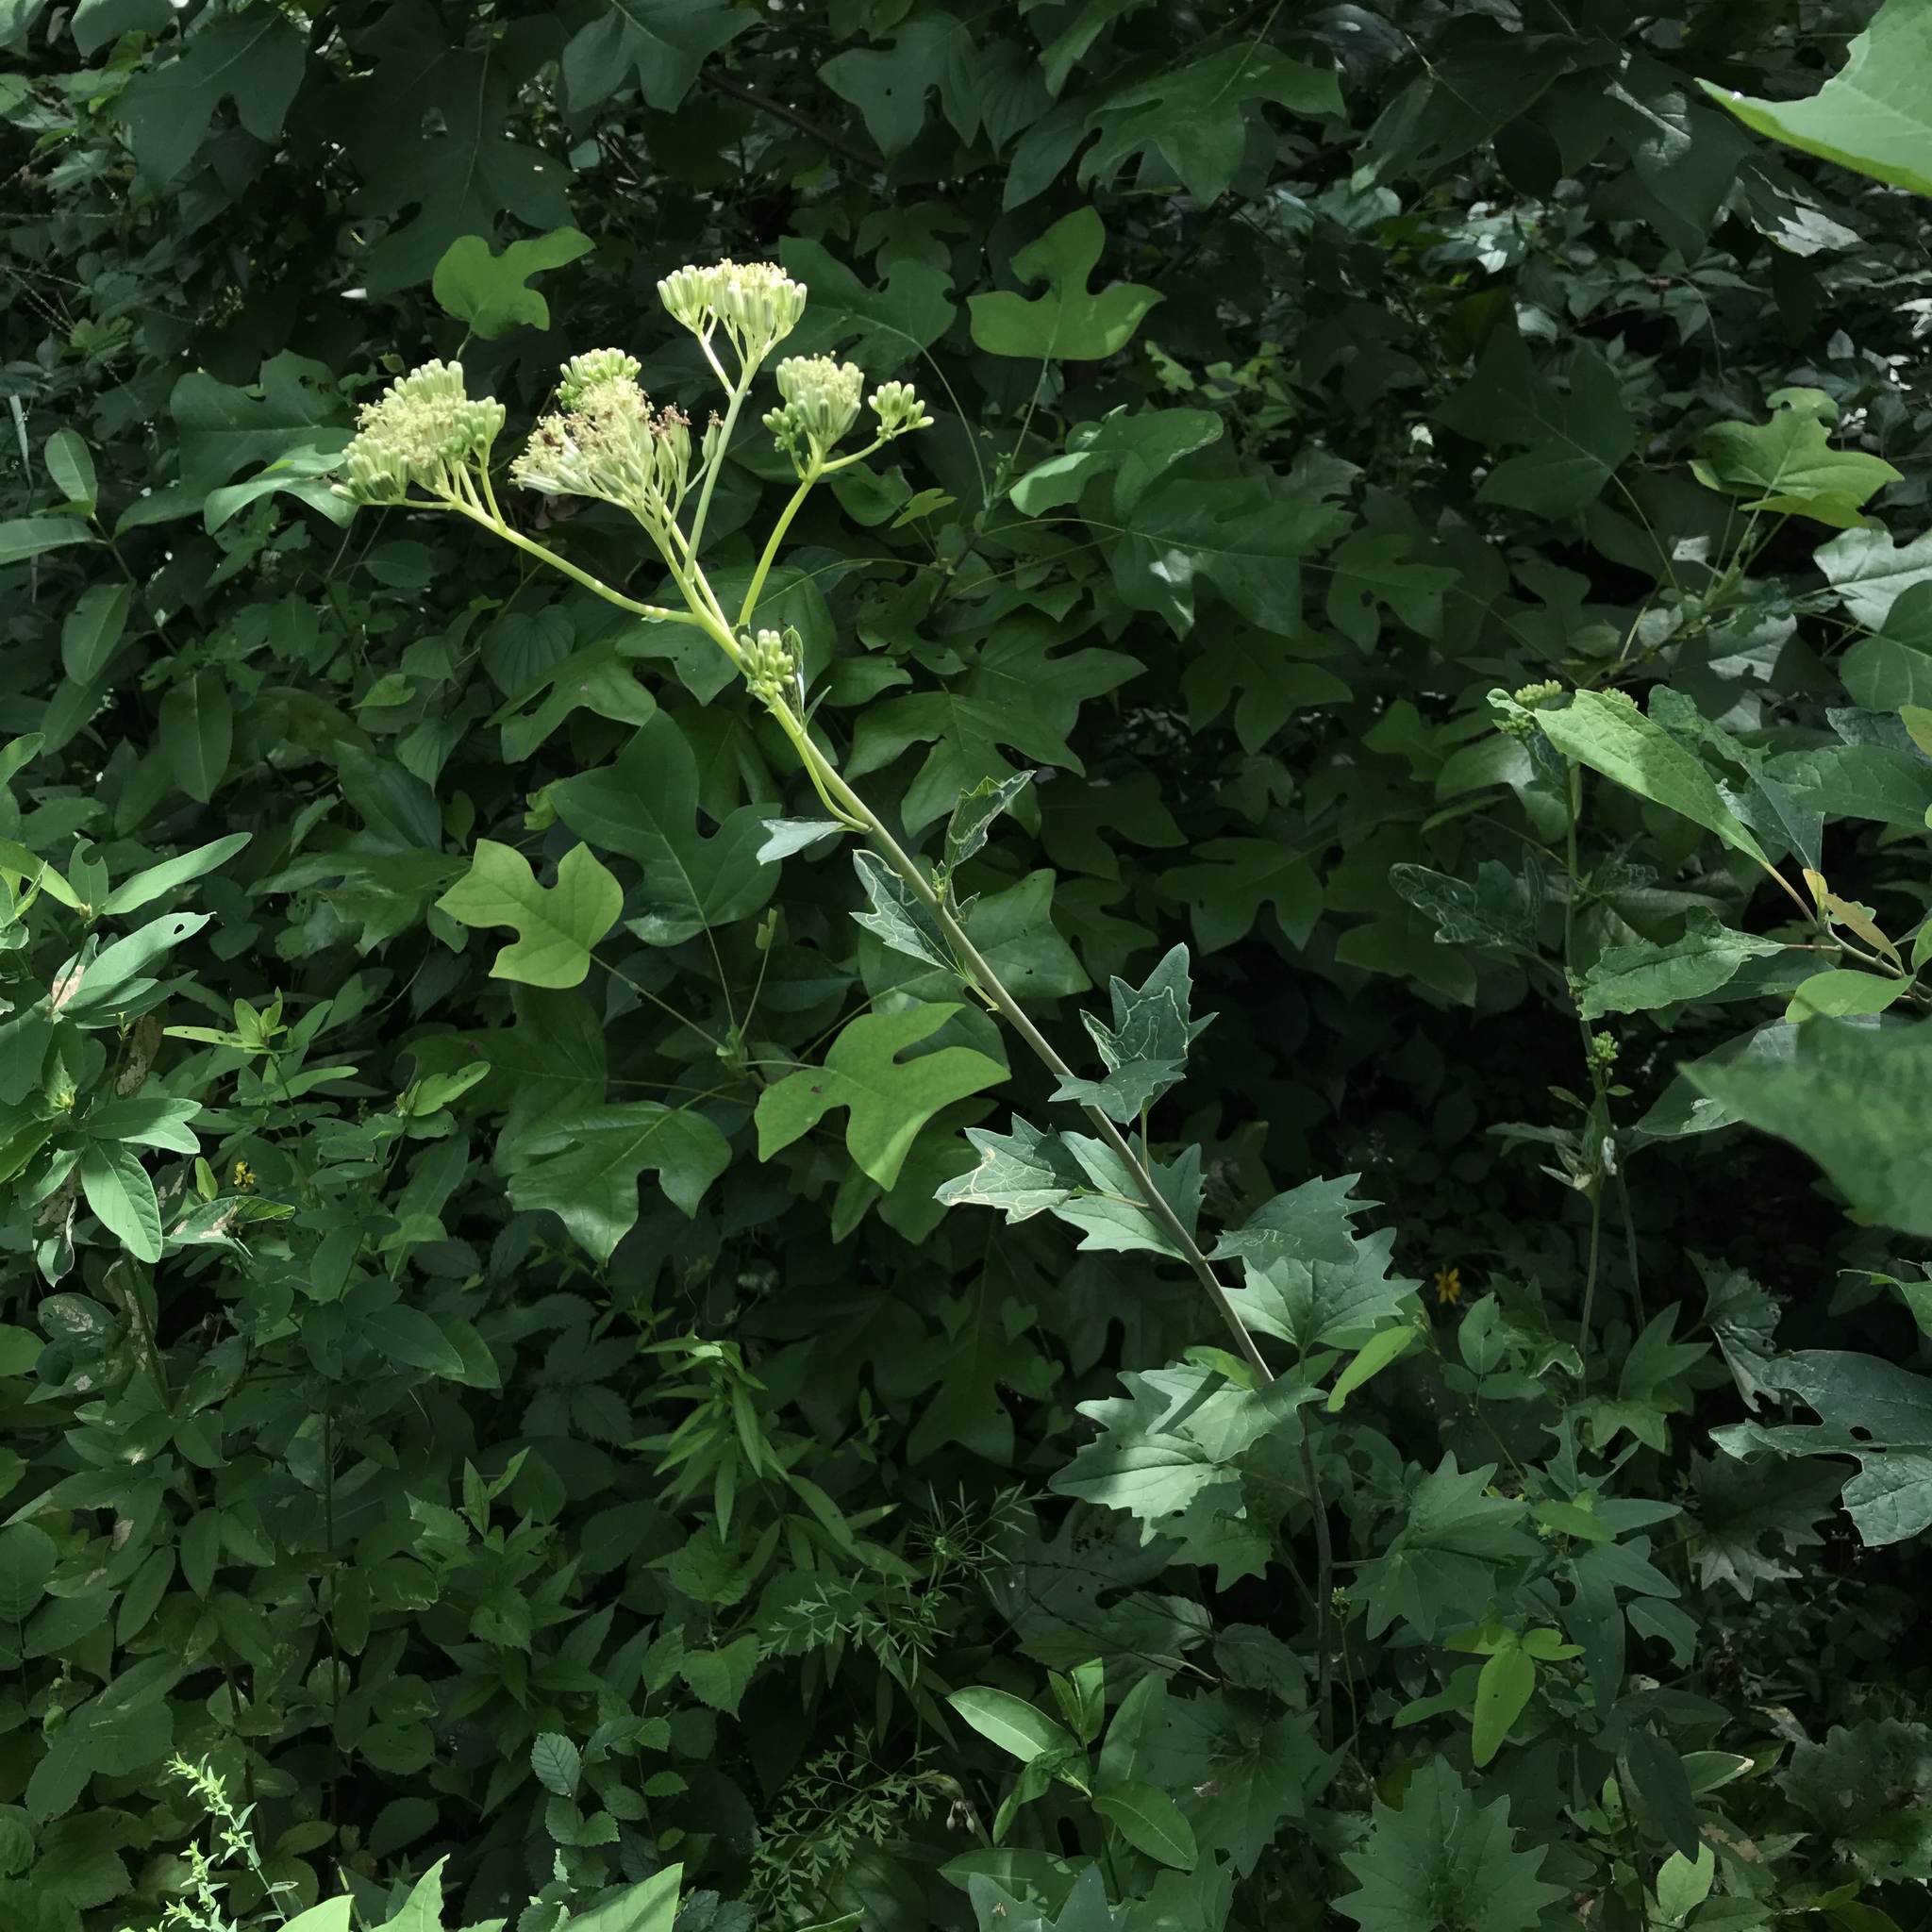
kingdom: Plantae
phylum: Tracheophyta
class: Magnoliopsida
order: Asterales
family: Asteraceae
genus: Arnoglossum
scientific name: Arnoglossum atriplicifolium
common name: Pale indian-plantain
